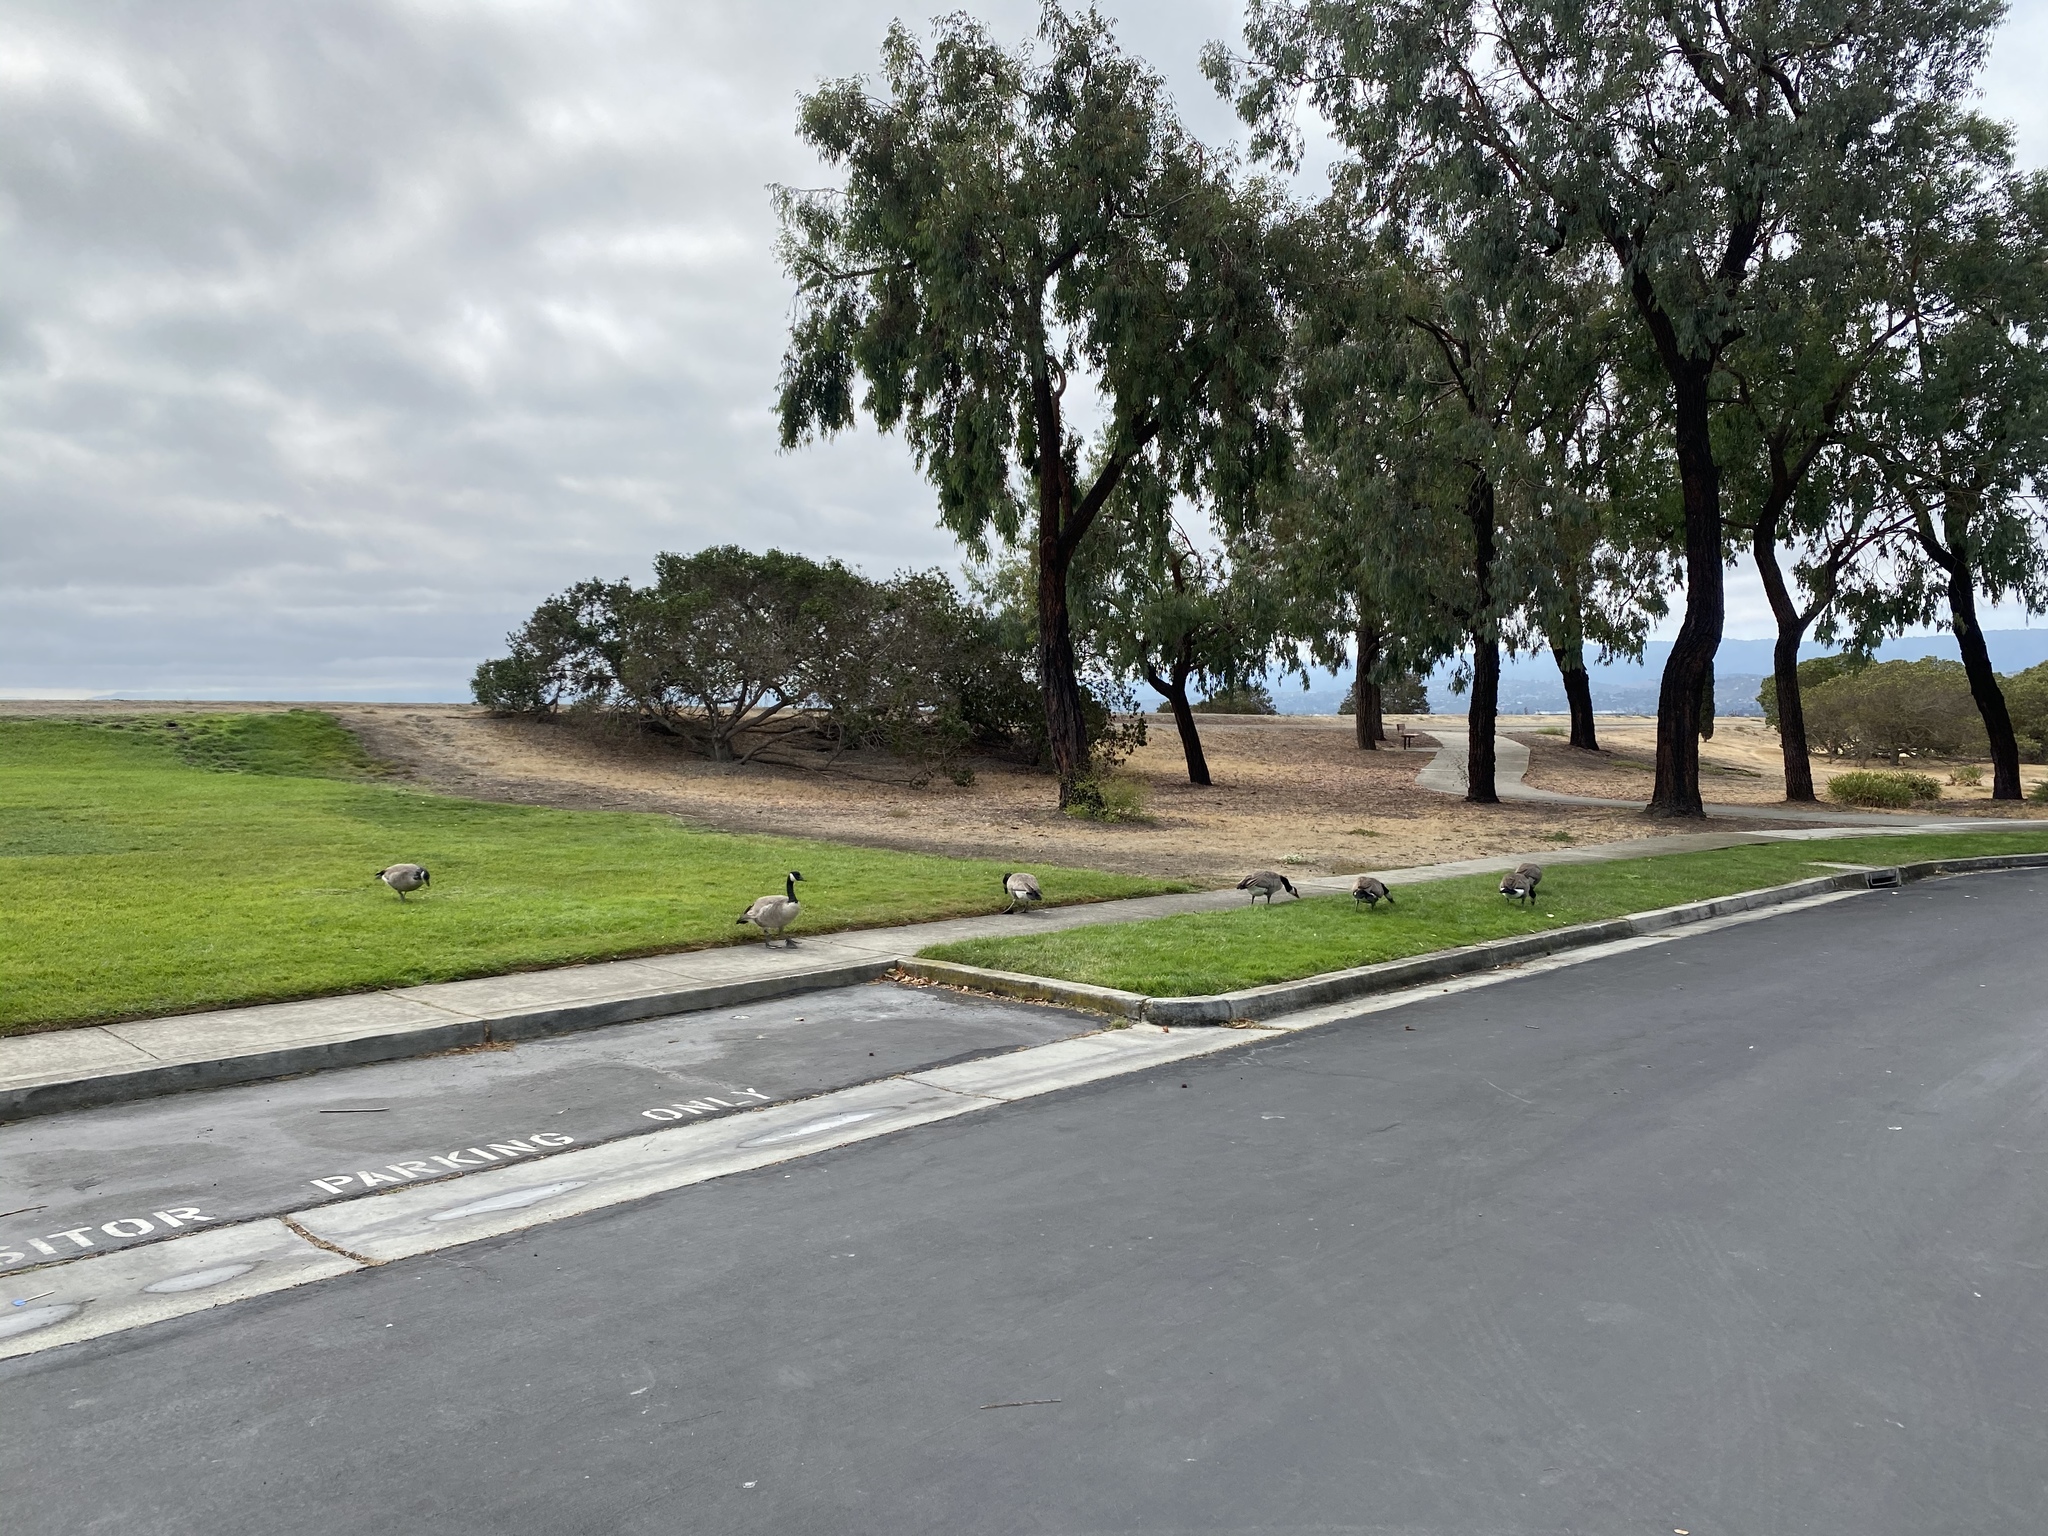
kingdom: Animalia
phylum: Chordata
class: Aves
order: Anseriformes
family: Anatidae
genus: Branta
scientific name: Branta canadensis
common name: Canada goose
